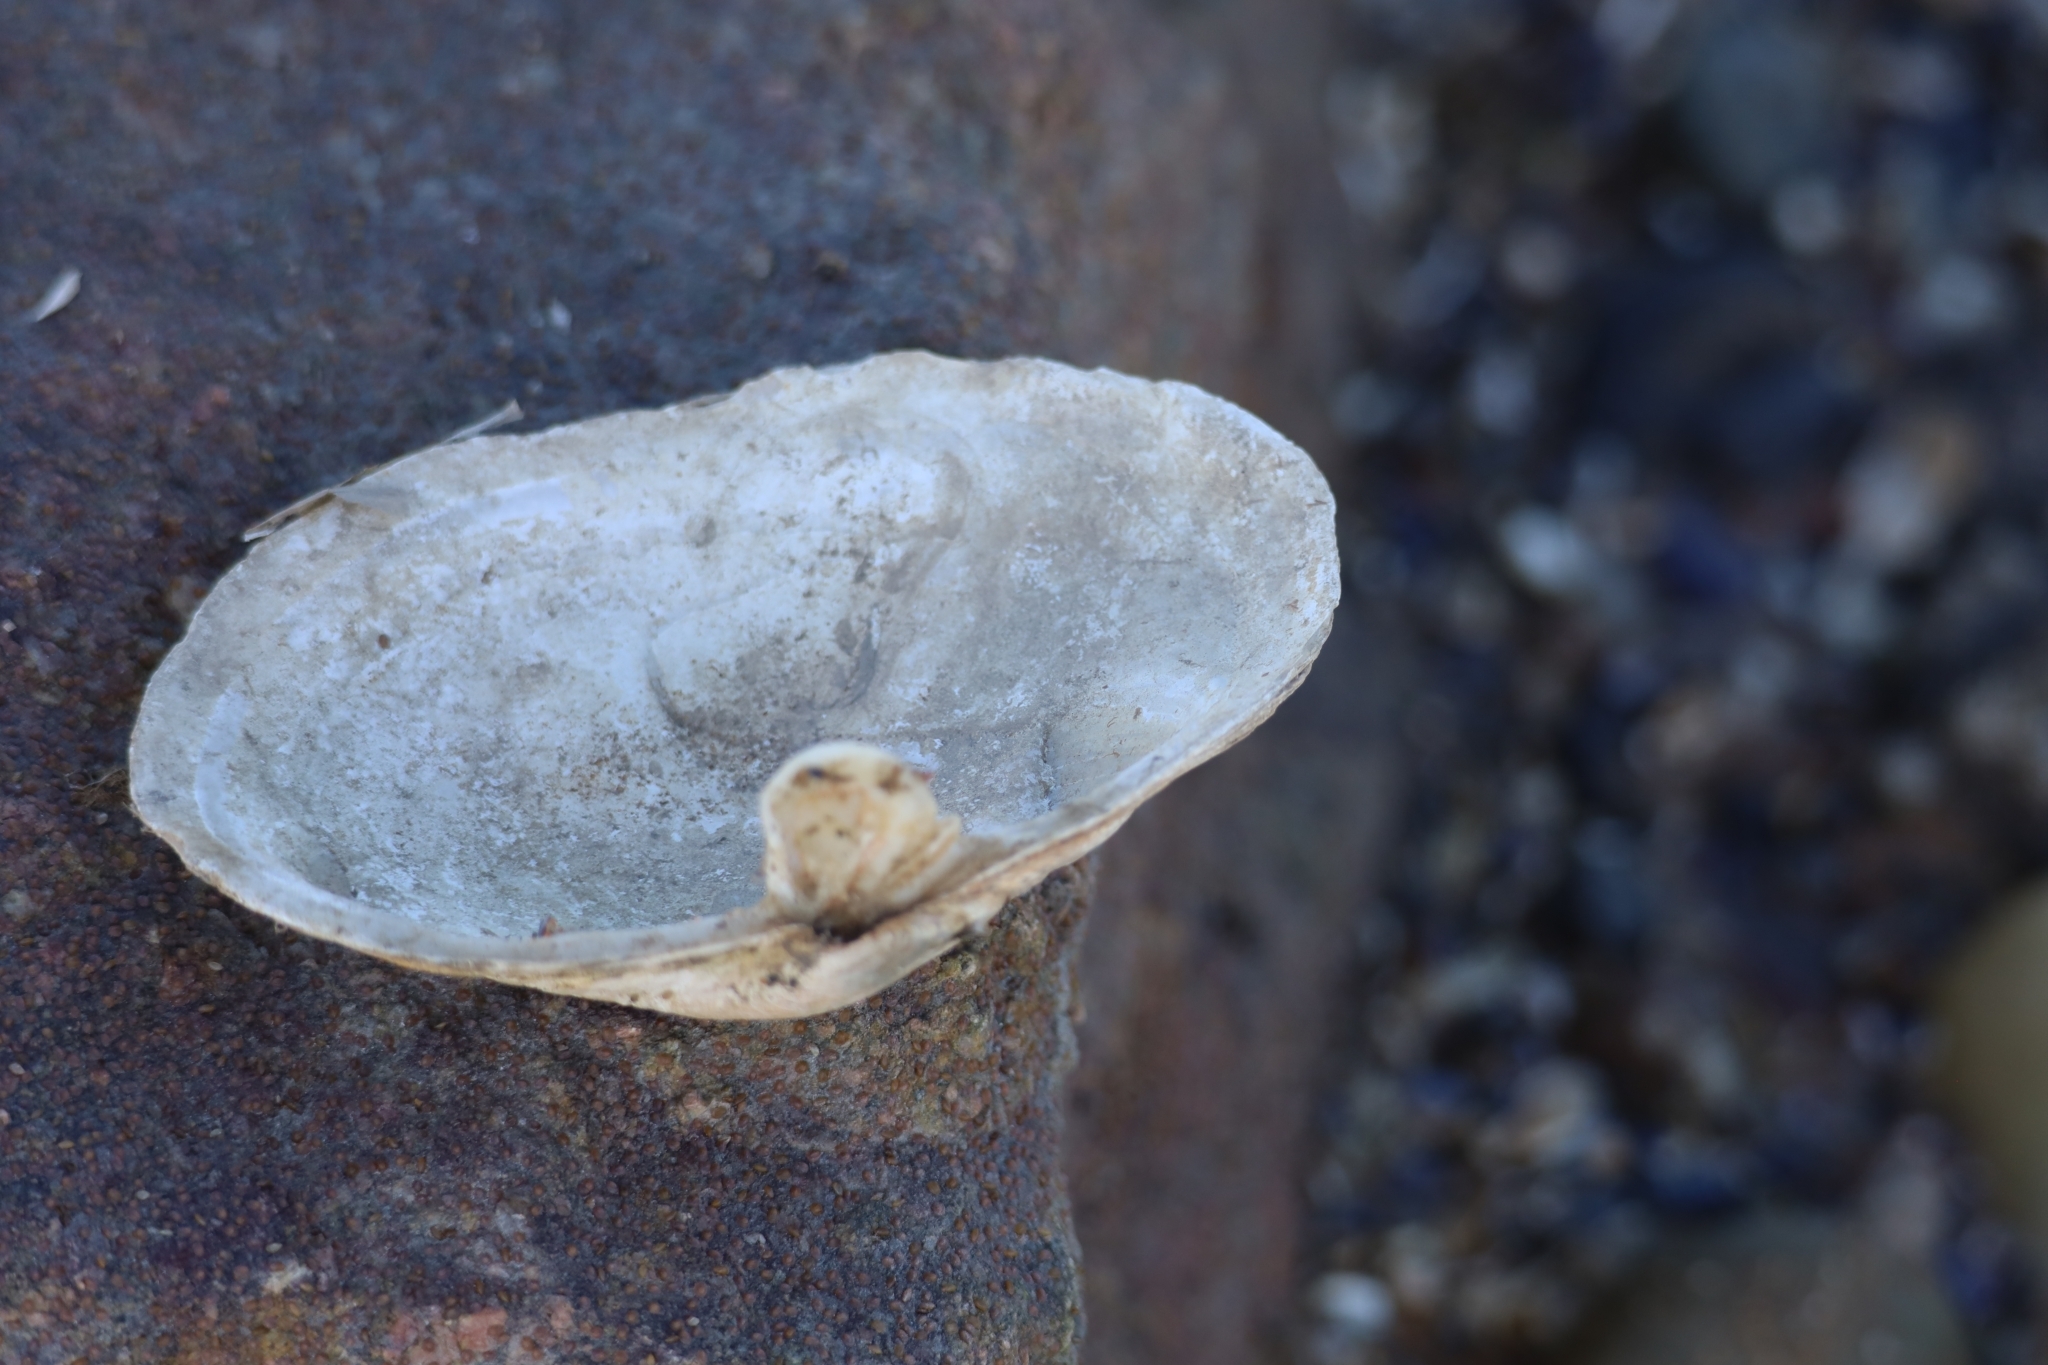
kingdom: Animalia
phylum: Mollusca
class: Bivalvia
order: Myida
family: Myidae
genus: Mya
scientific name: Mya arenaria
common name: Soft-shelled clam
